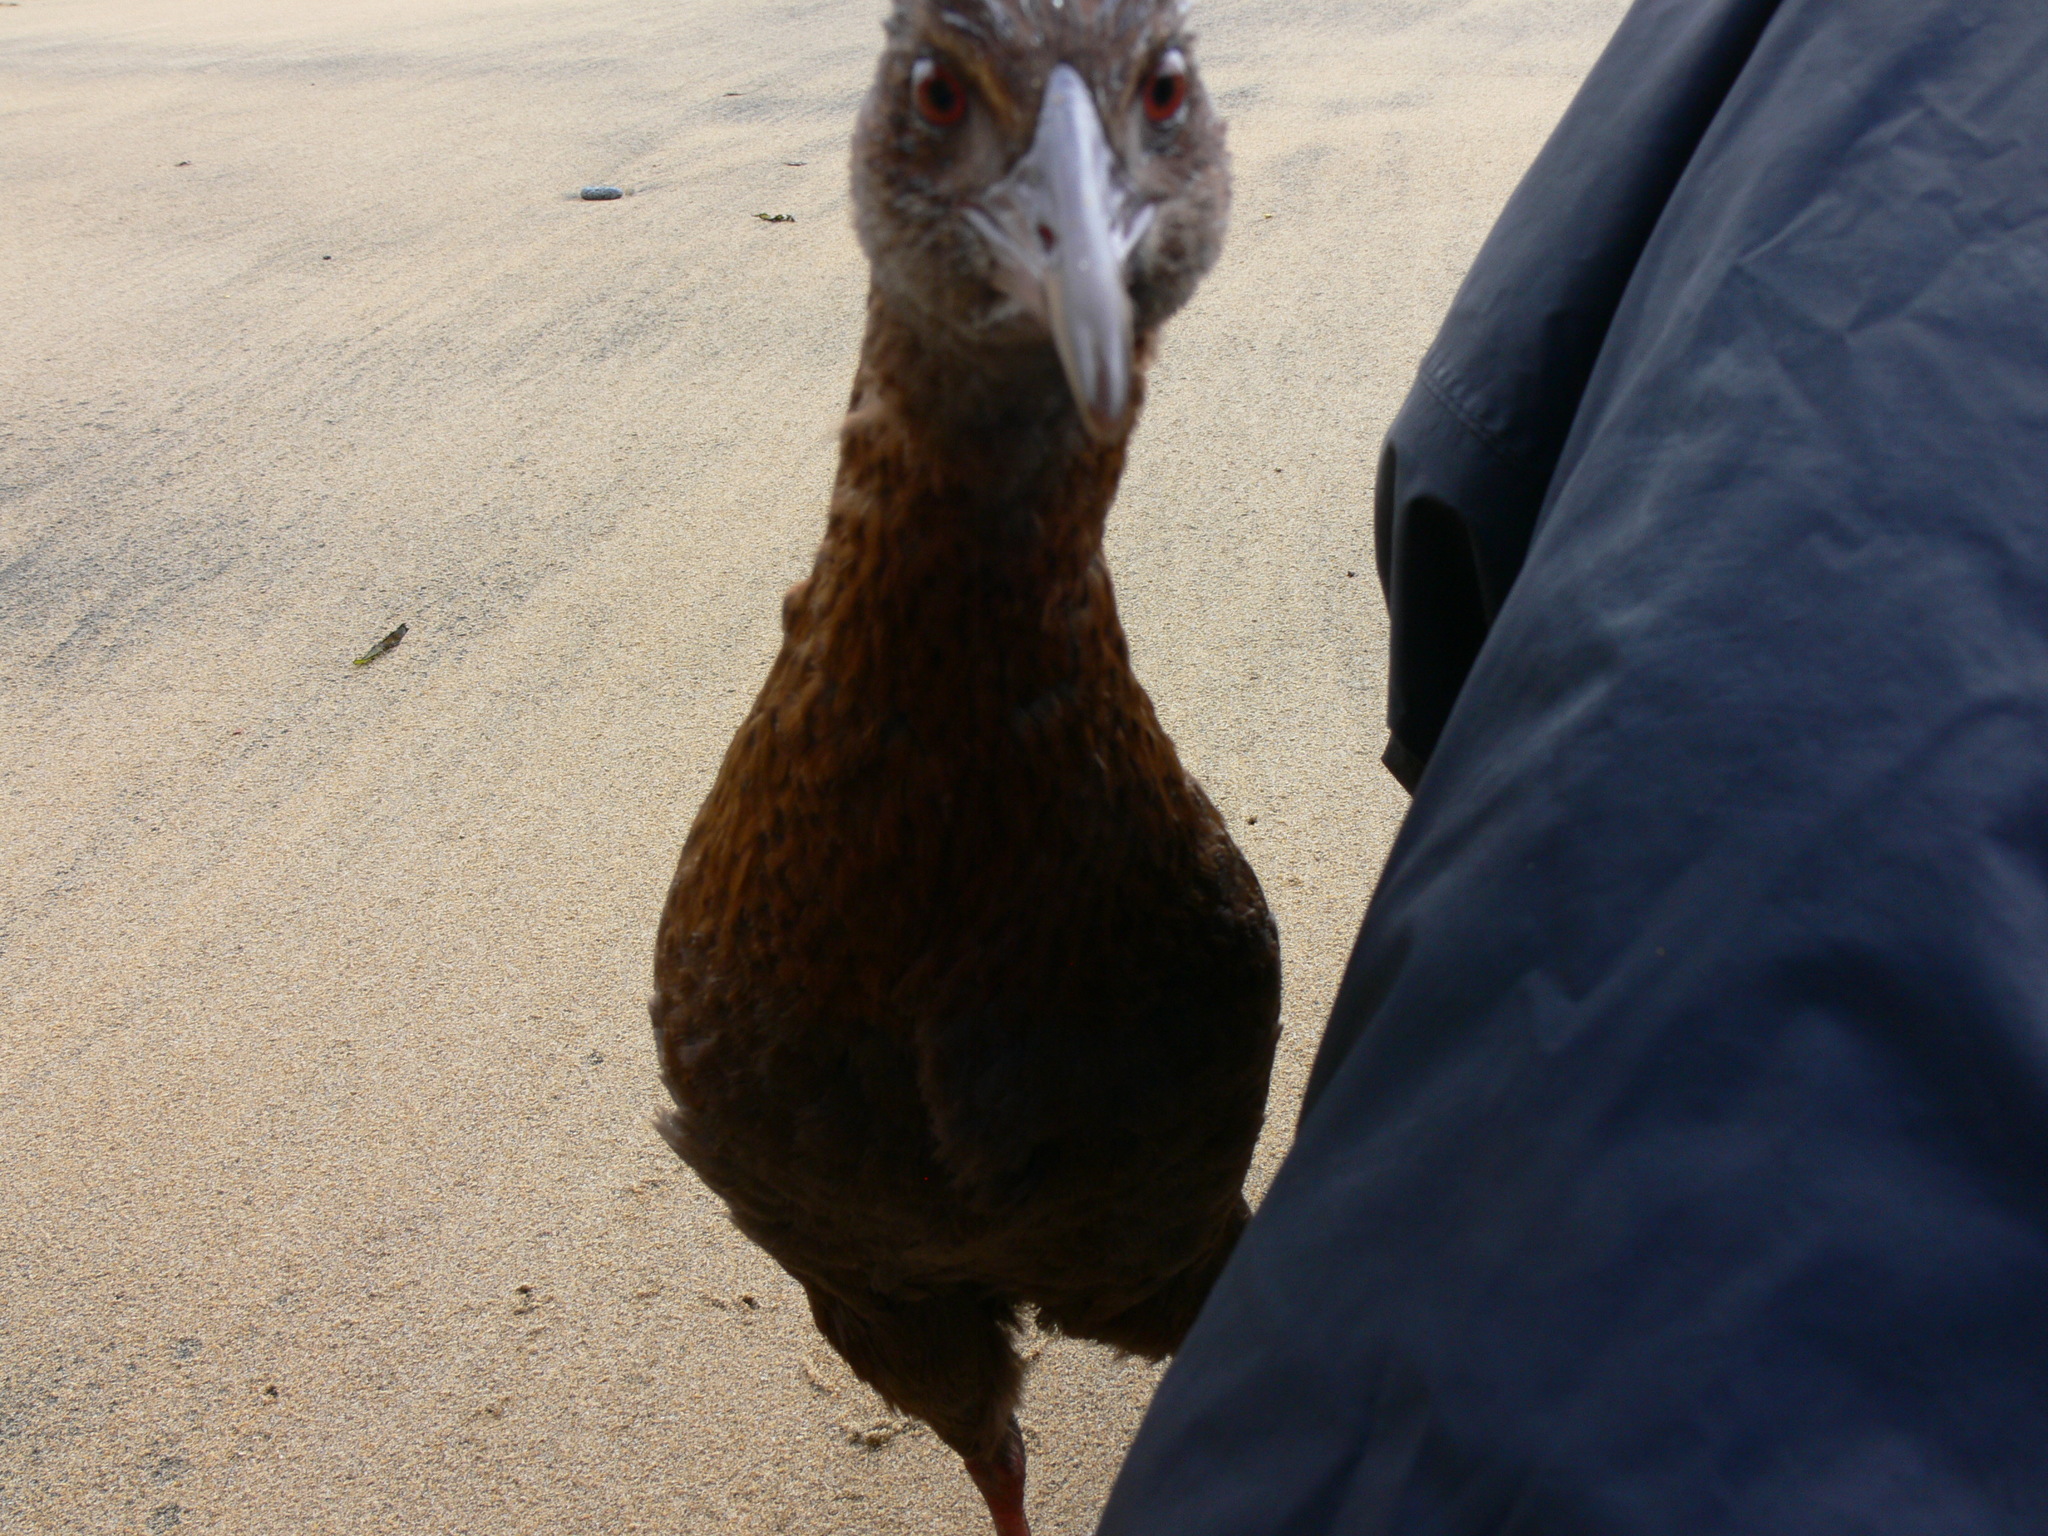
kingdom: Animalia
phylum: Chordata
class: Aves
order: Gruiformes
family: Rallidae
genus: Gallirallus
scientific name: Gallirallus australis
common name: Weka
